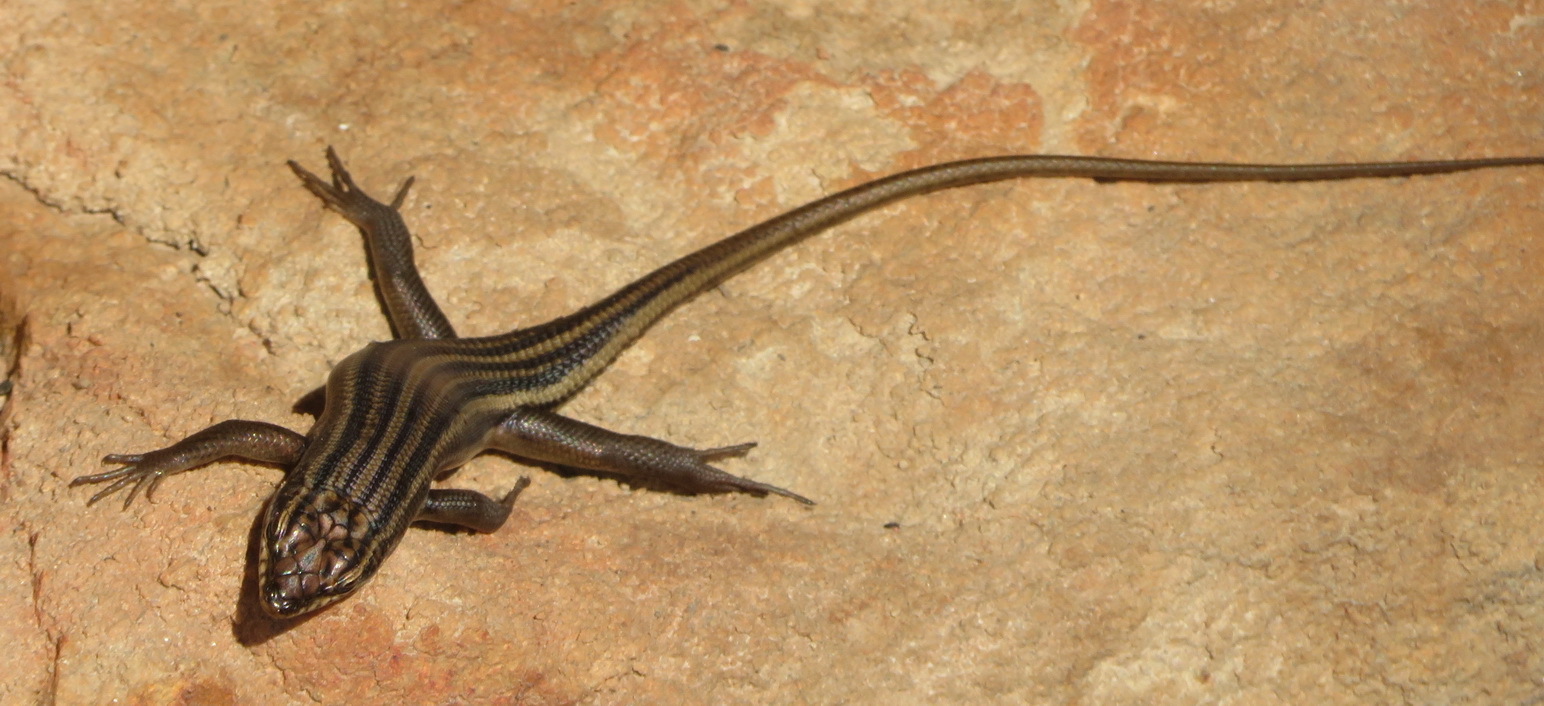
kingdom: Animalia
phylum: Chordata
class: Squamata
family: Scincidae
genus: Trachylepis
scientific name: Trachylepis sulcata
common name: Western rock skink
